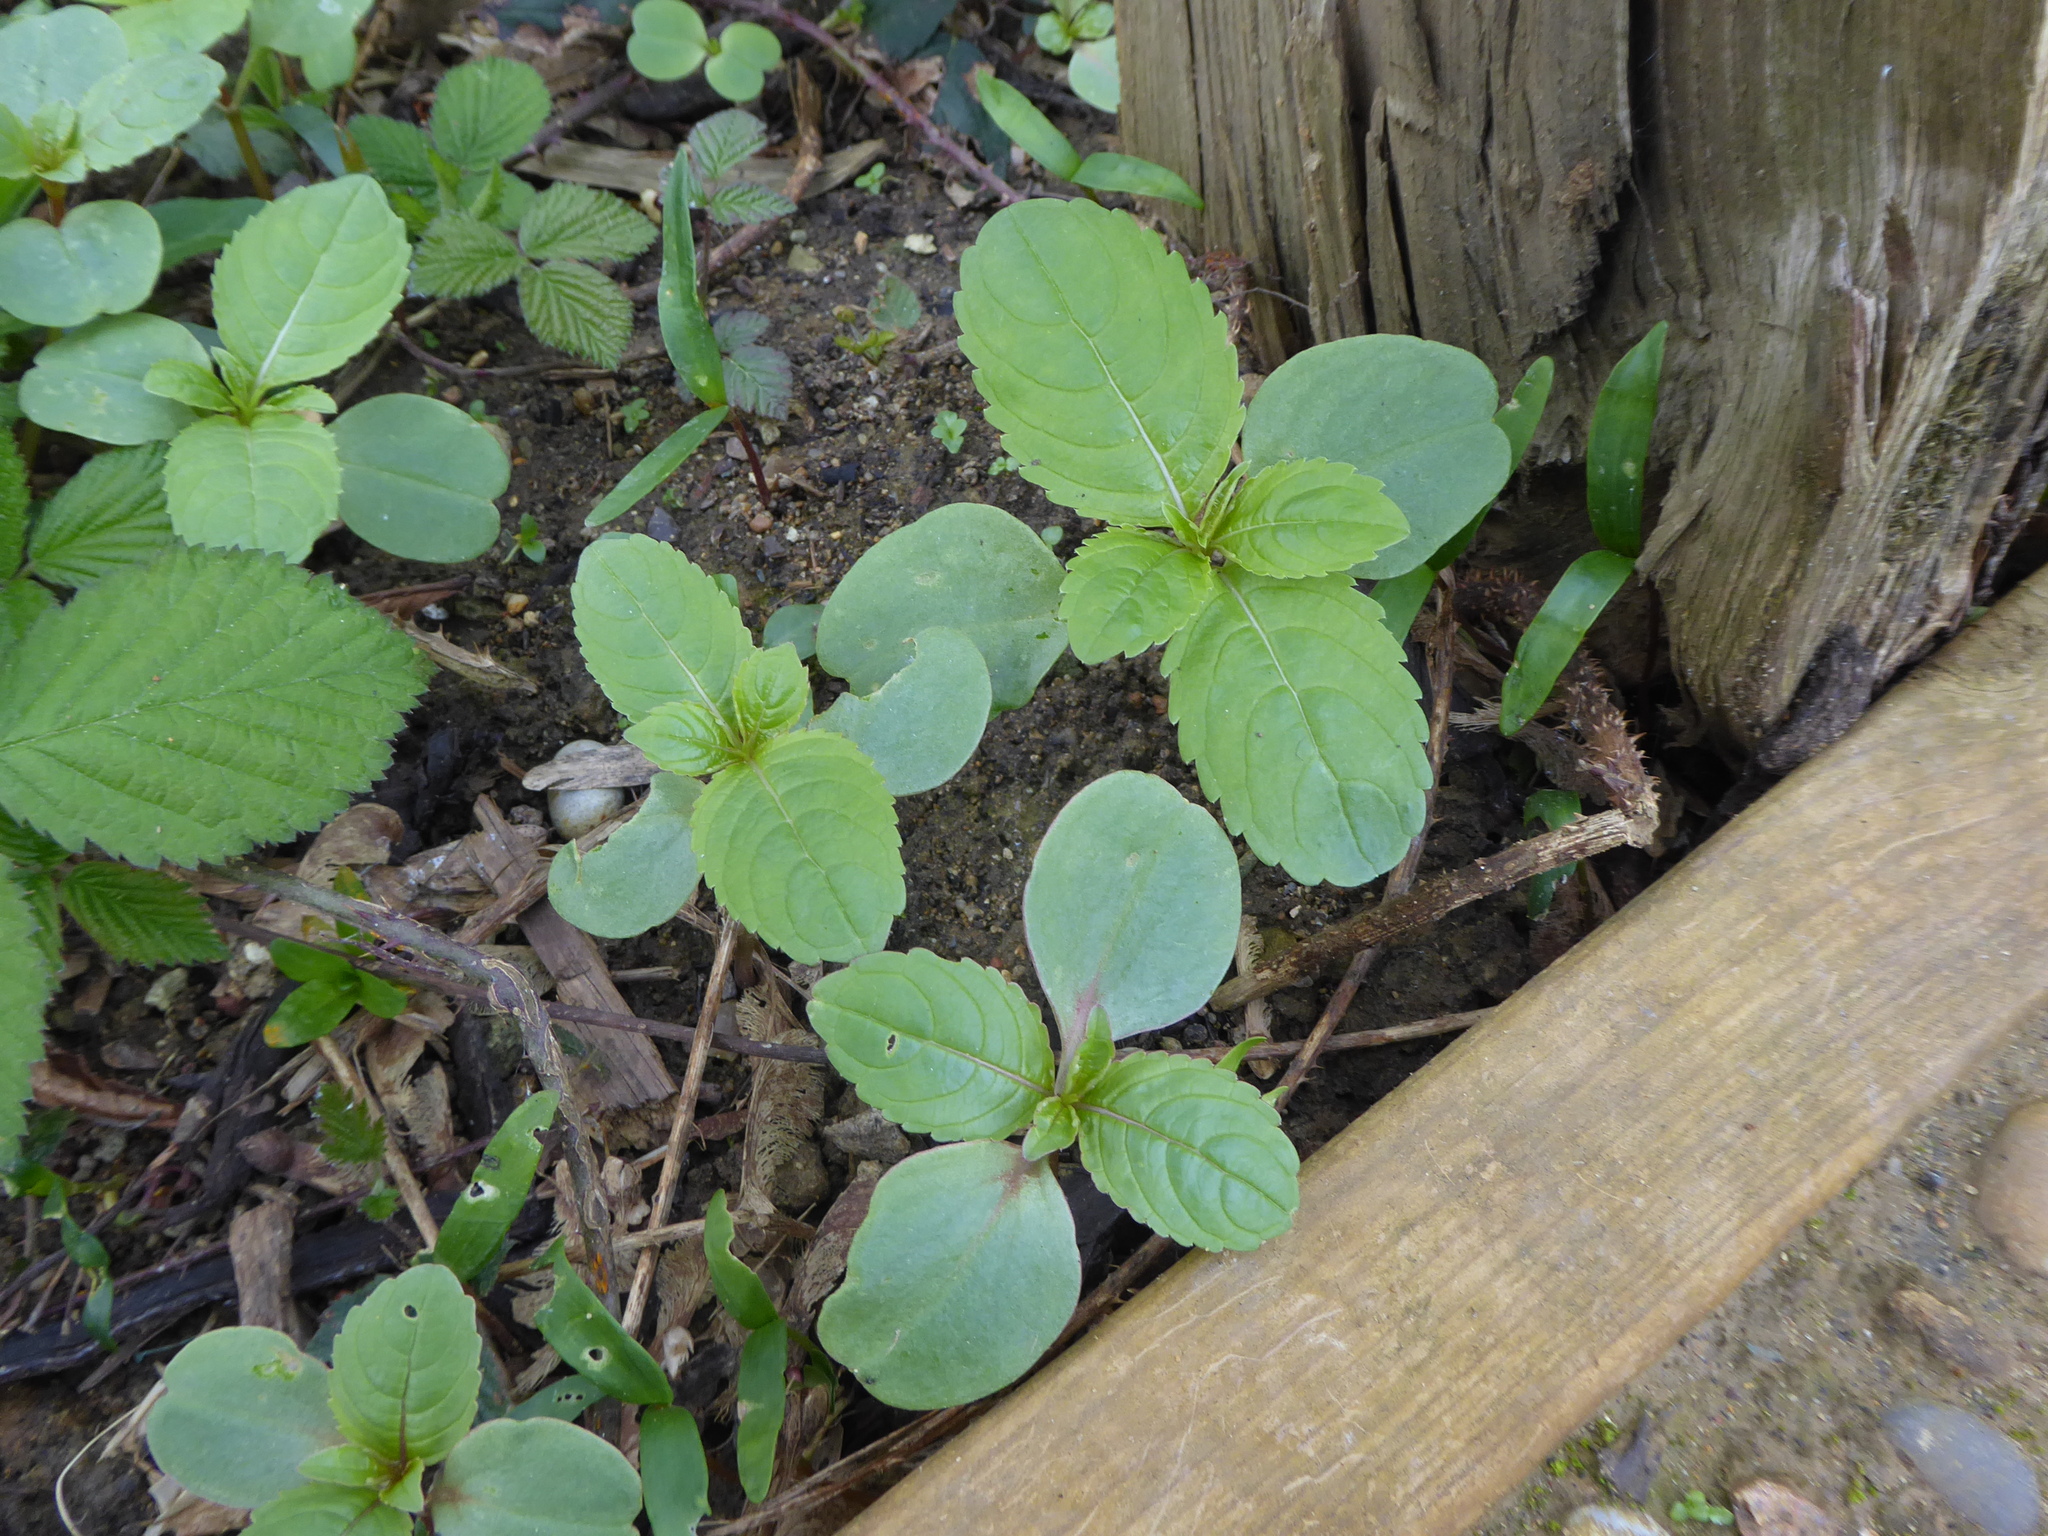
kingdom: Plantae
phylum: Tracheophyta
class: Magnoliopsida
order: Ericales
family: Balsaminaceae
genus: Impatiens
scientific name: Impatiens glandulifera
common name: Himalayan balsam
